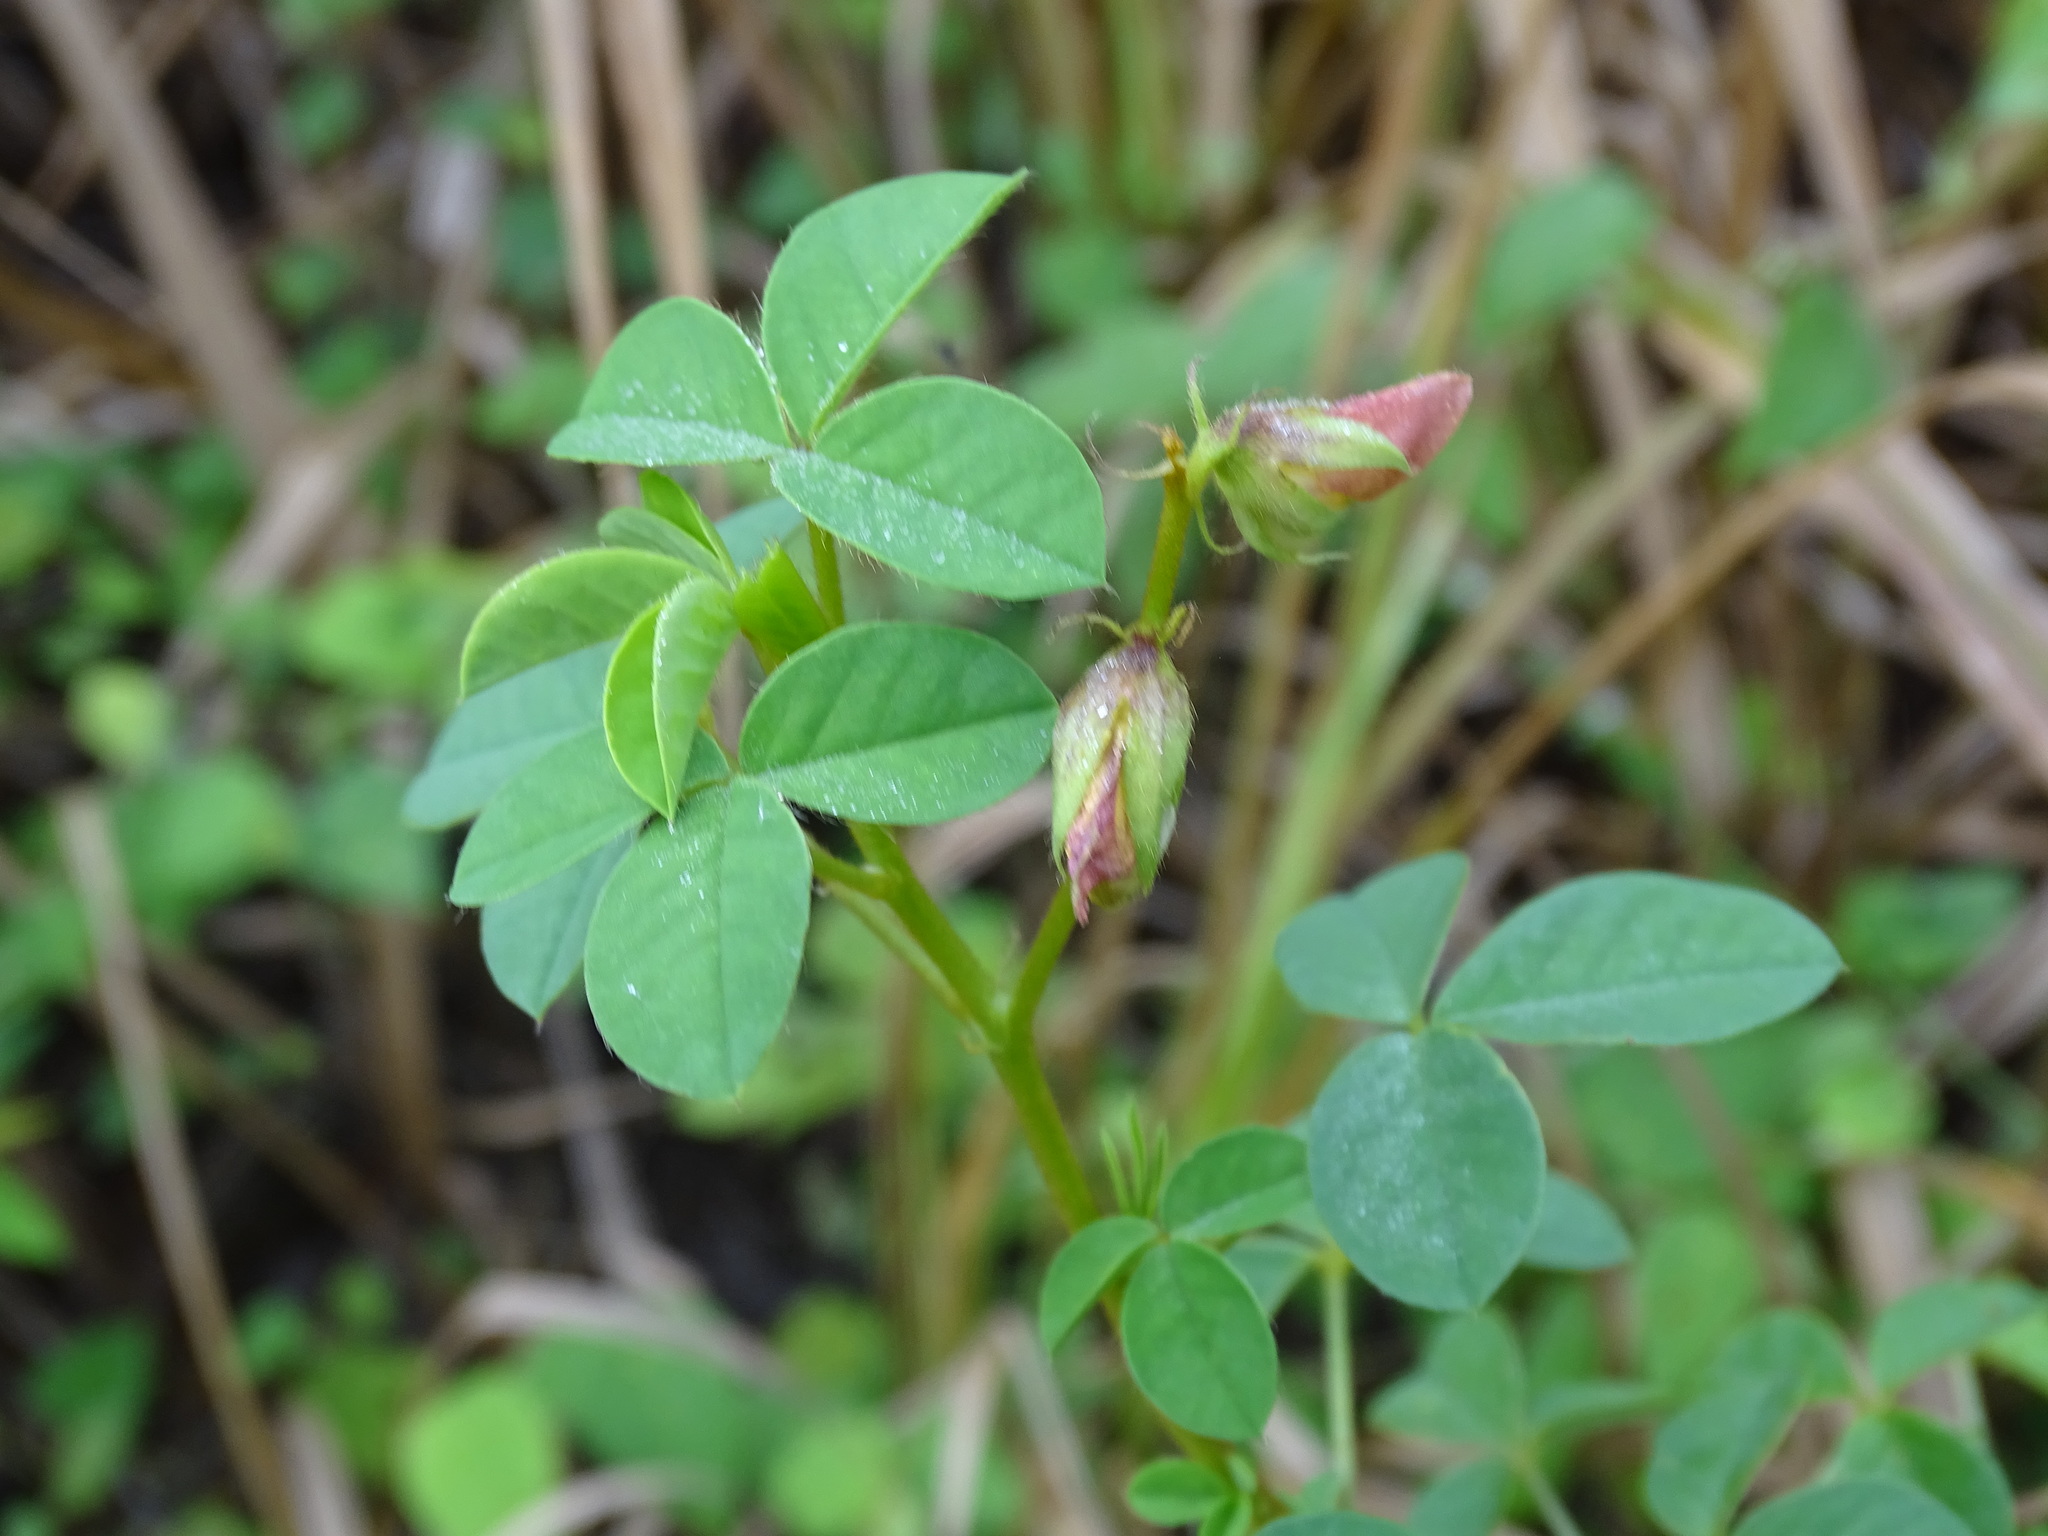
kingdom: Plantae
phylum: Tracheophyta
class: Magnoliopsida
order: Fabales
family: Fabaceae
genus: Crotalaria
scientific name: Crotalaria incana
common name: Shakeshake
